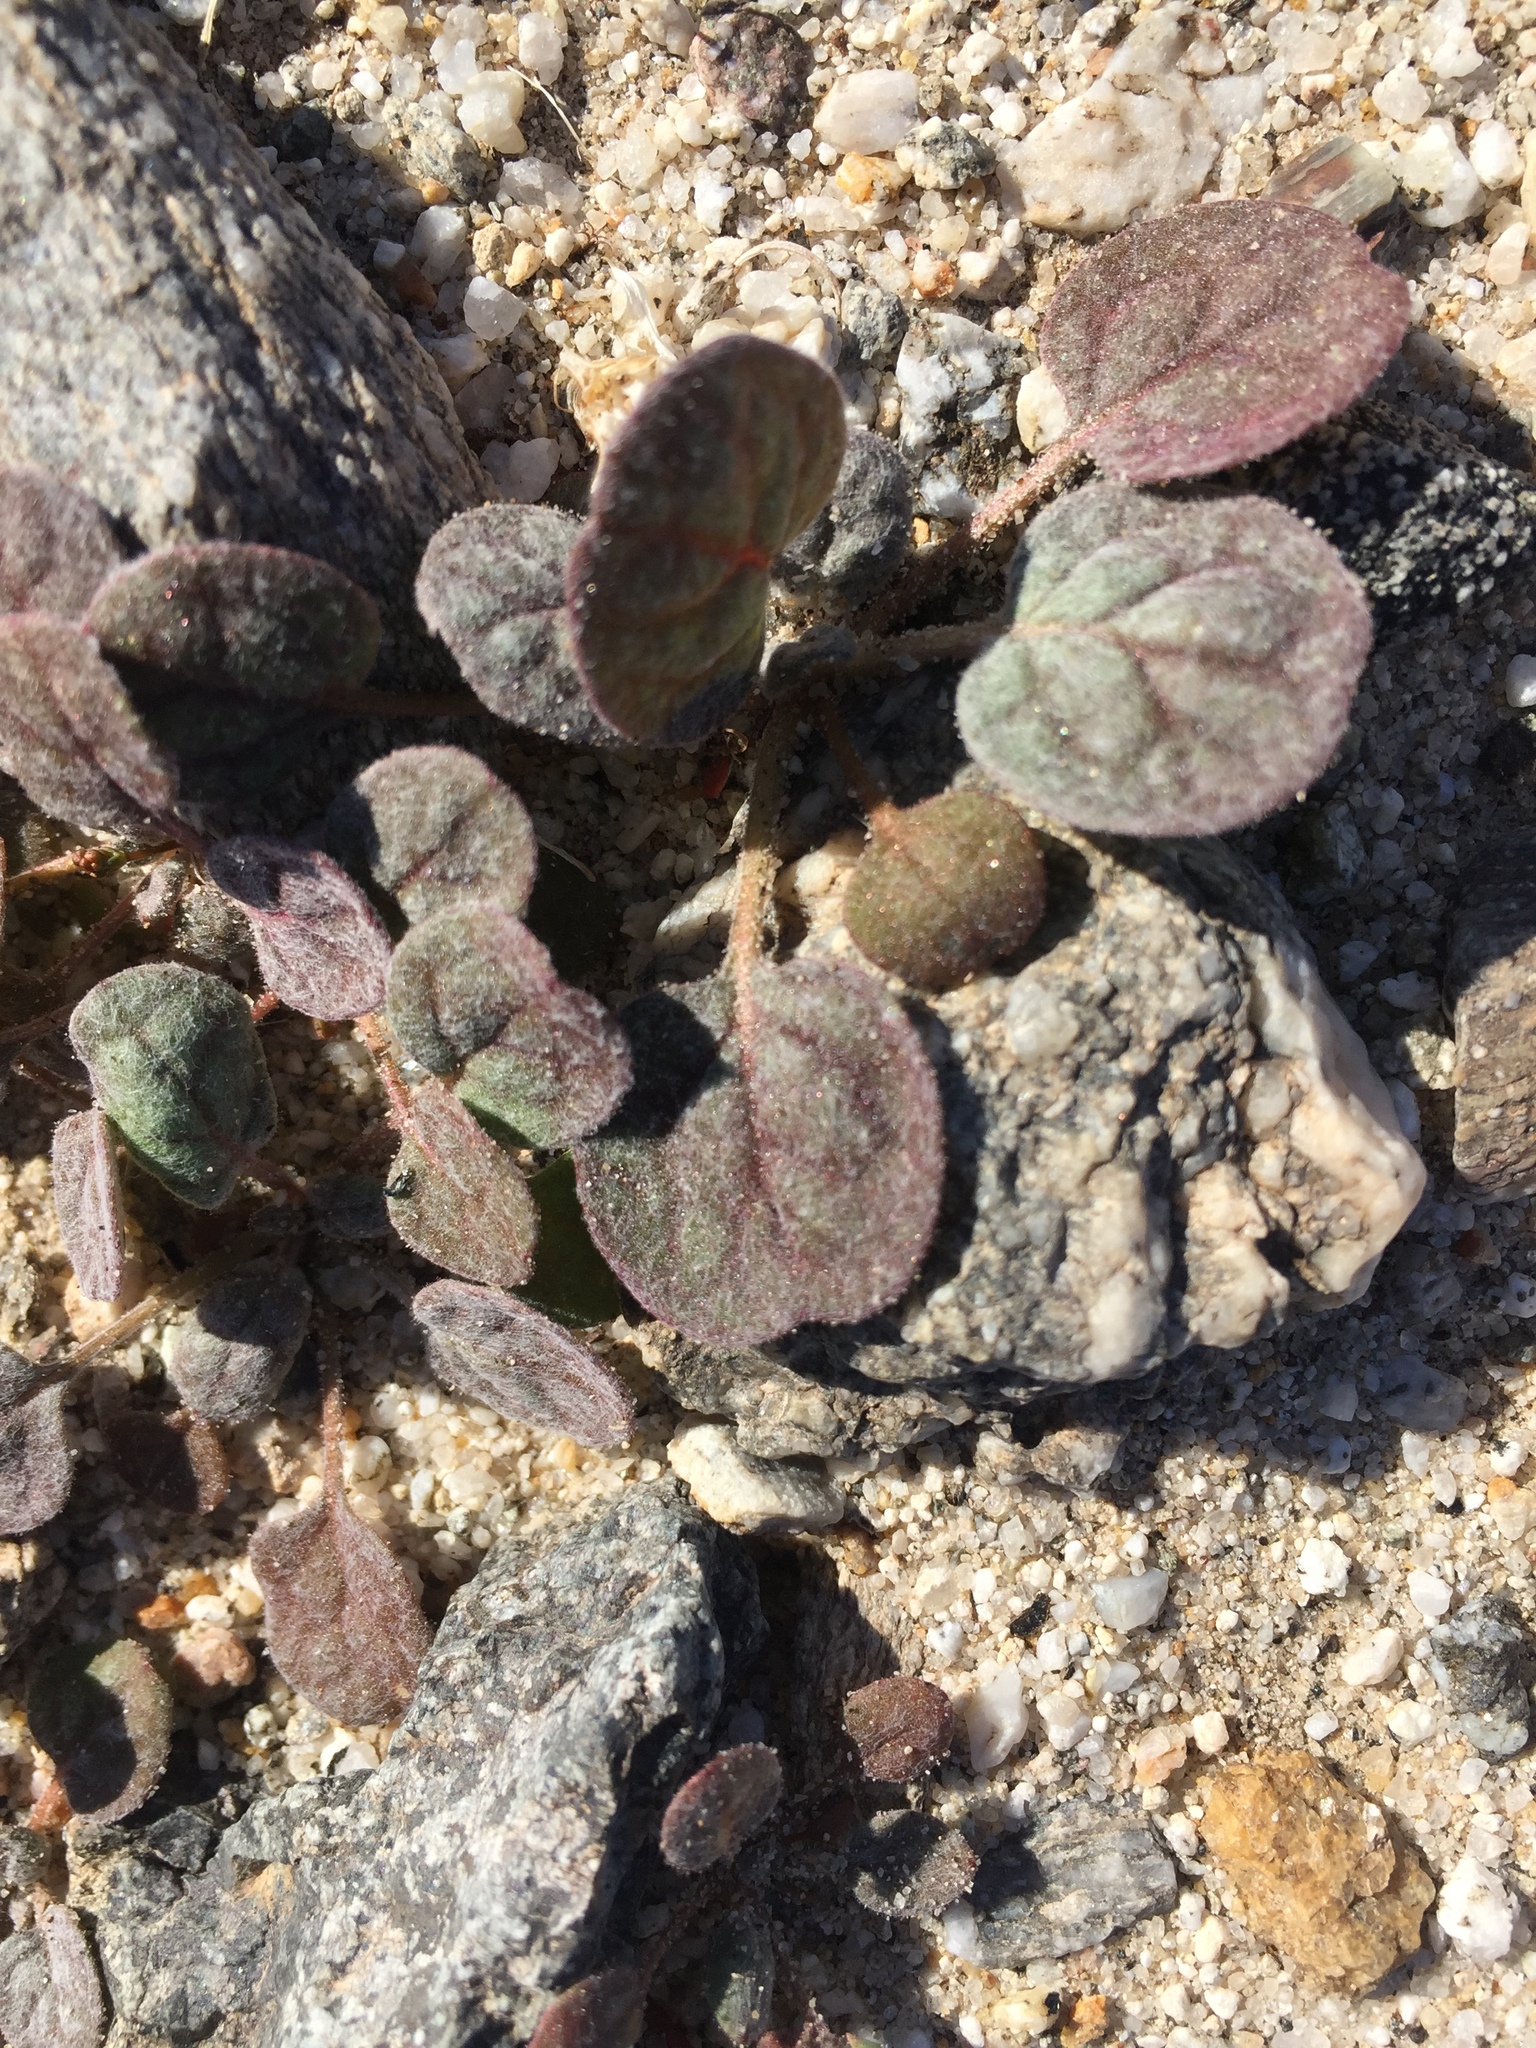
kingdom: Plantae
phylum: Tracheophyta
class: Magnoliopsida
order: Caryophyllales
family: Polygonaceae
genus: Eriogonum
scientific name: Eriogonum thomasii
